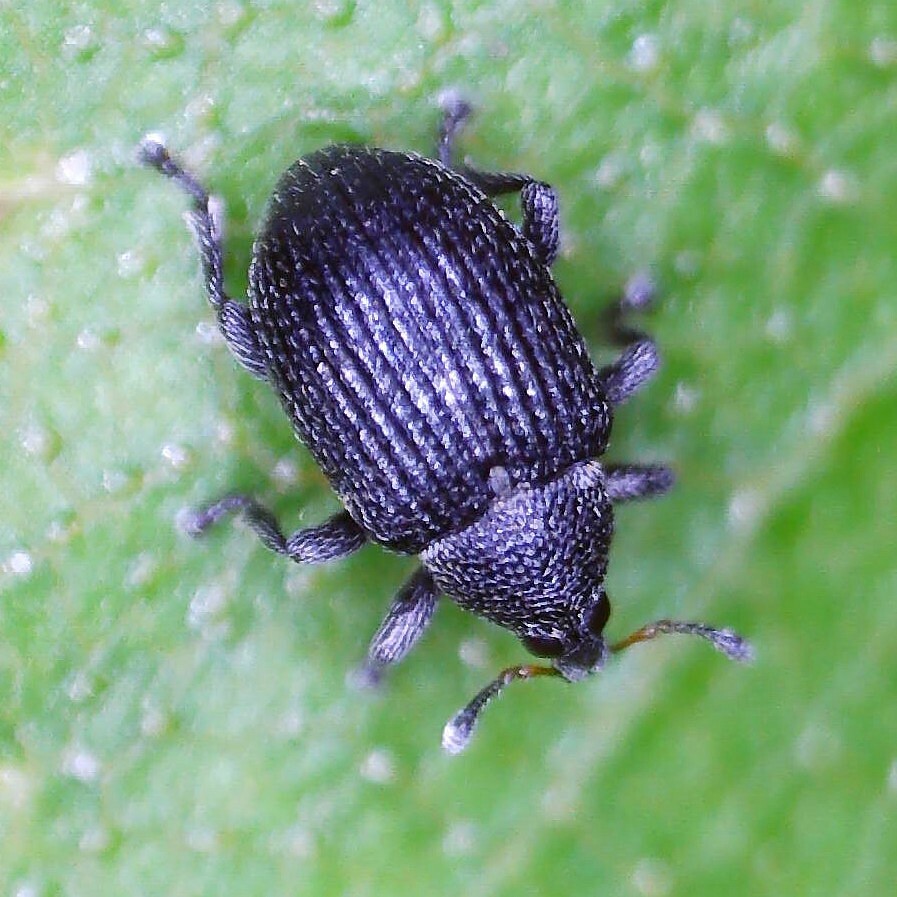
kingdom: Animalia
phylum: Arthropoda
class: Insecta
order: Coleoptera
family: Curculionidae
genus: Anoplus
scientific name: Anoplus plantaris
